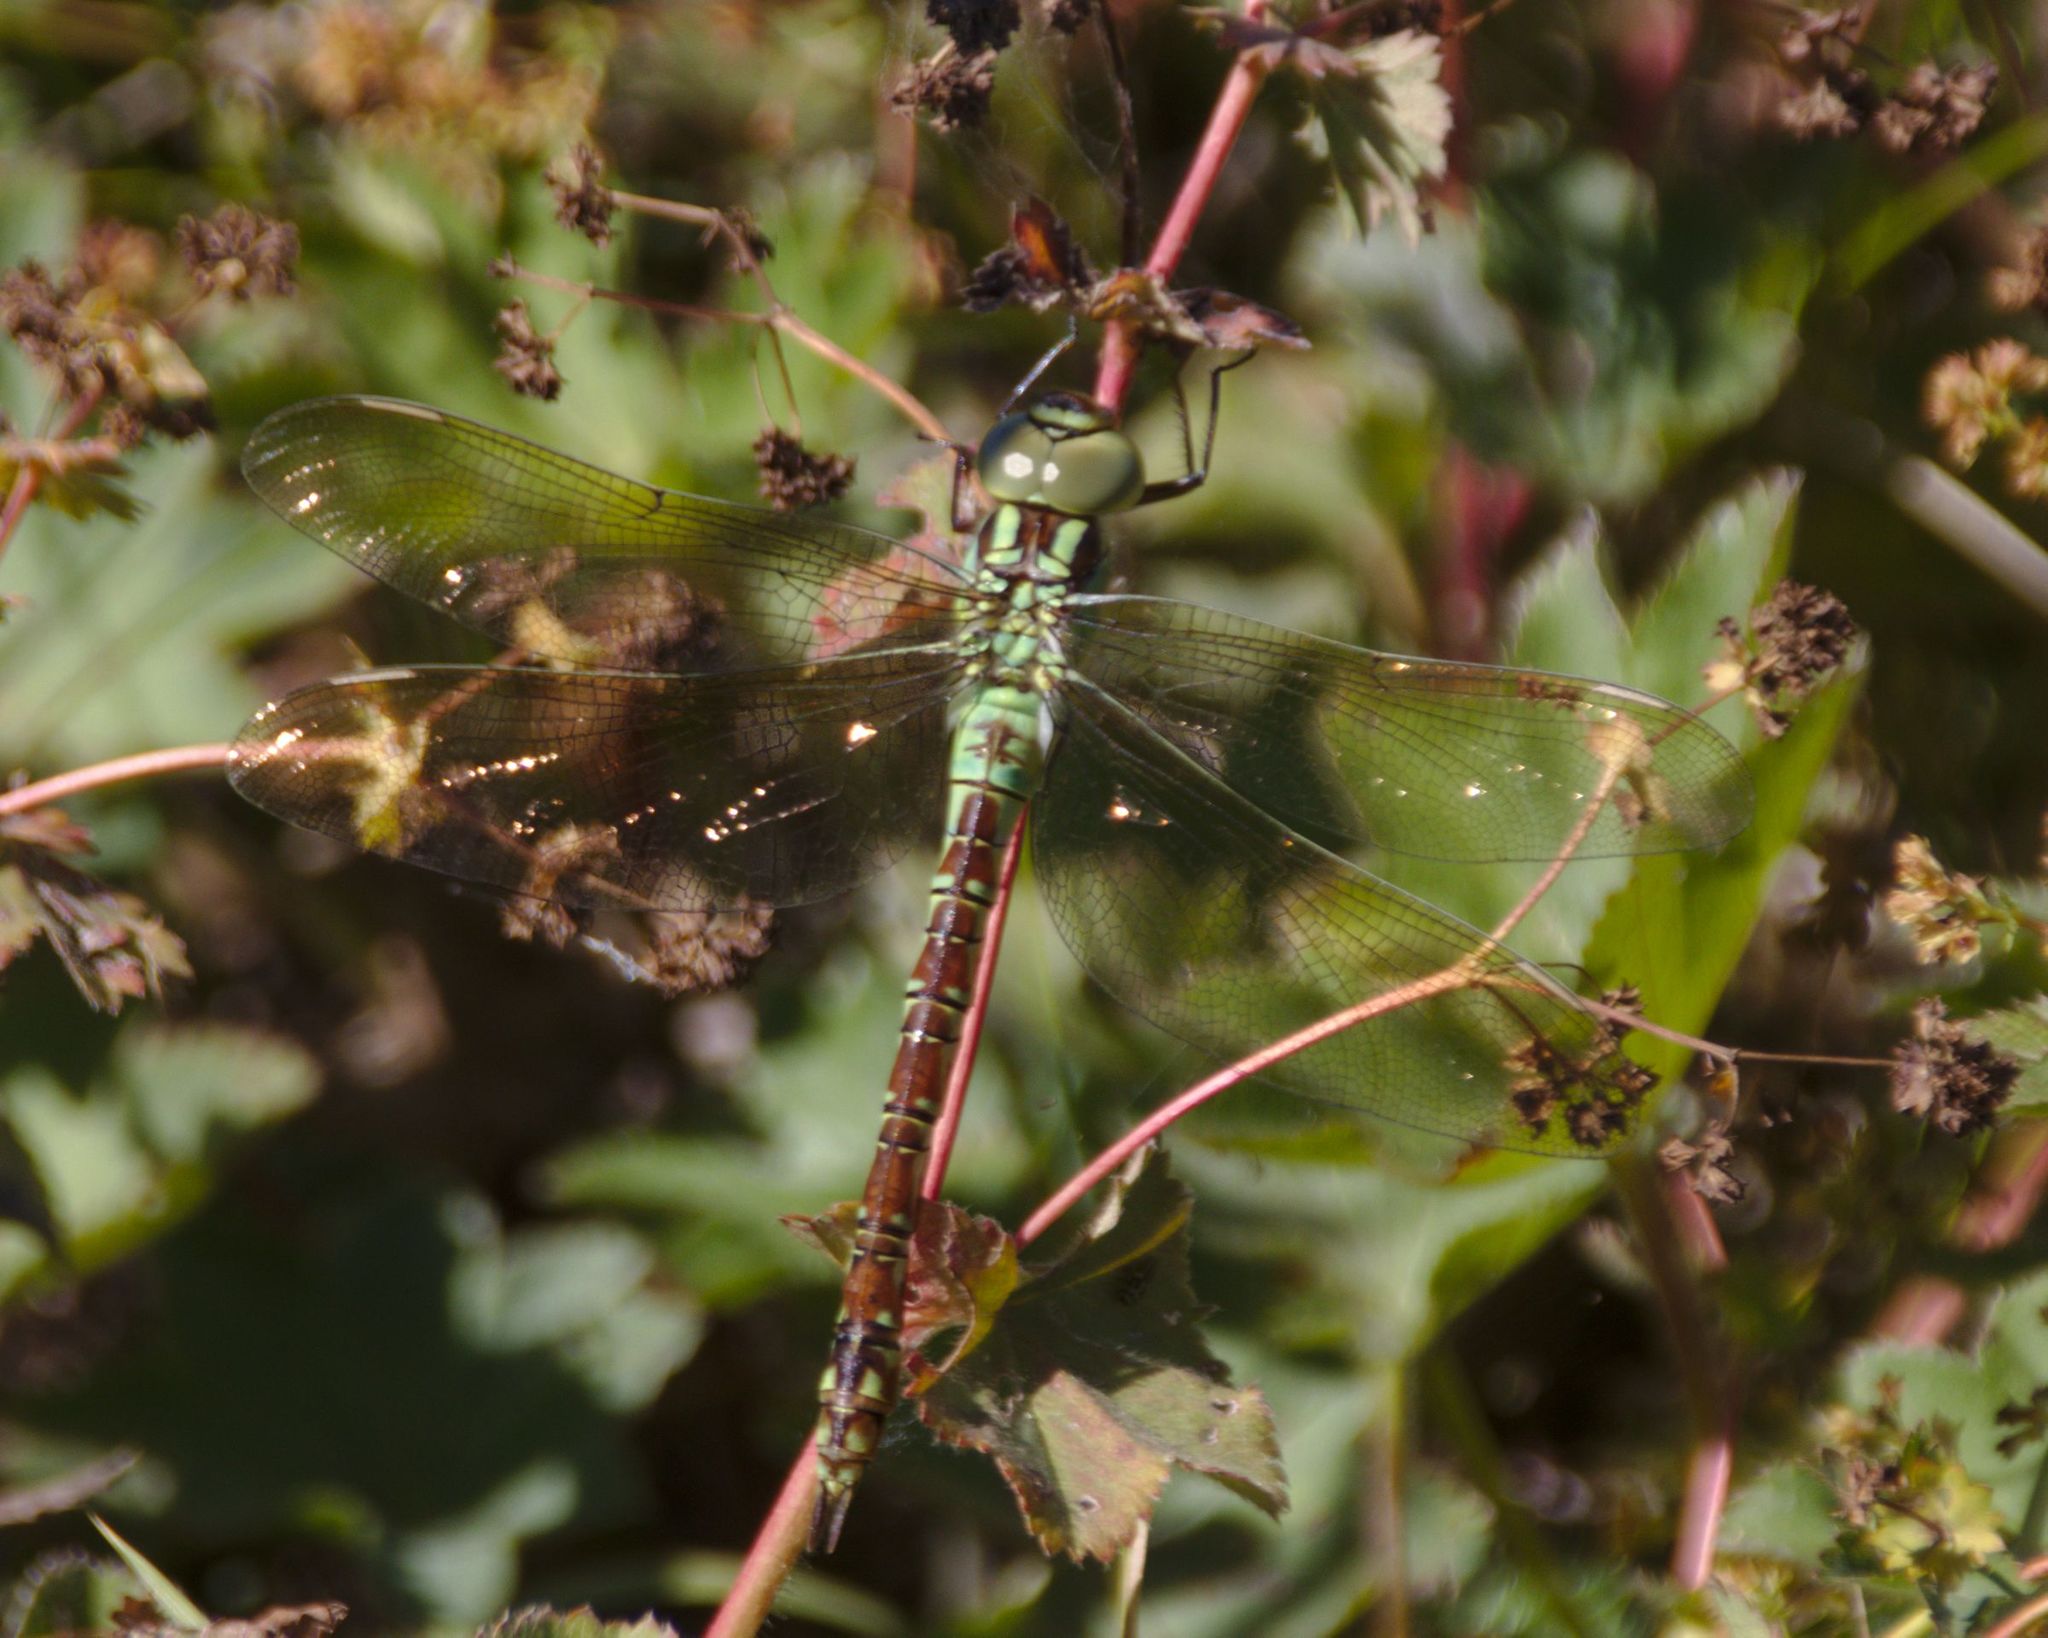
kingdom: Animalia
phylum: Arthropoda
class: Insecta
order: Odonata
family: Aeshnidae
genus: Aeshna
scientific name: Aeshna viridis
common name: Green hawker
